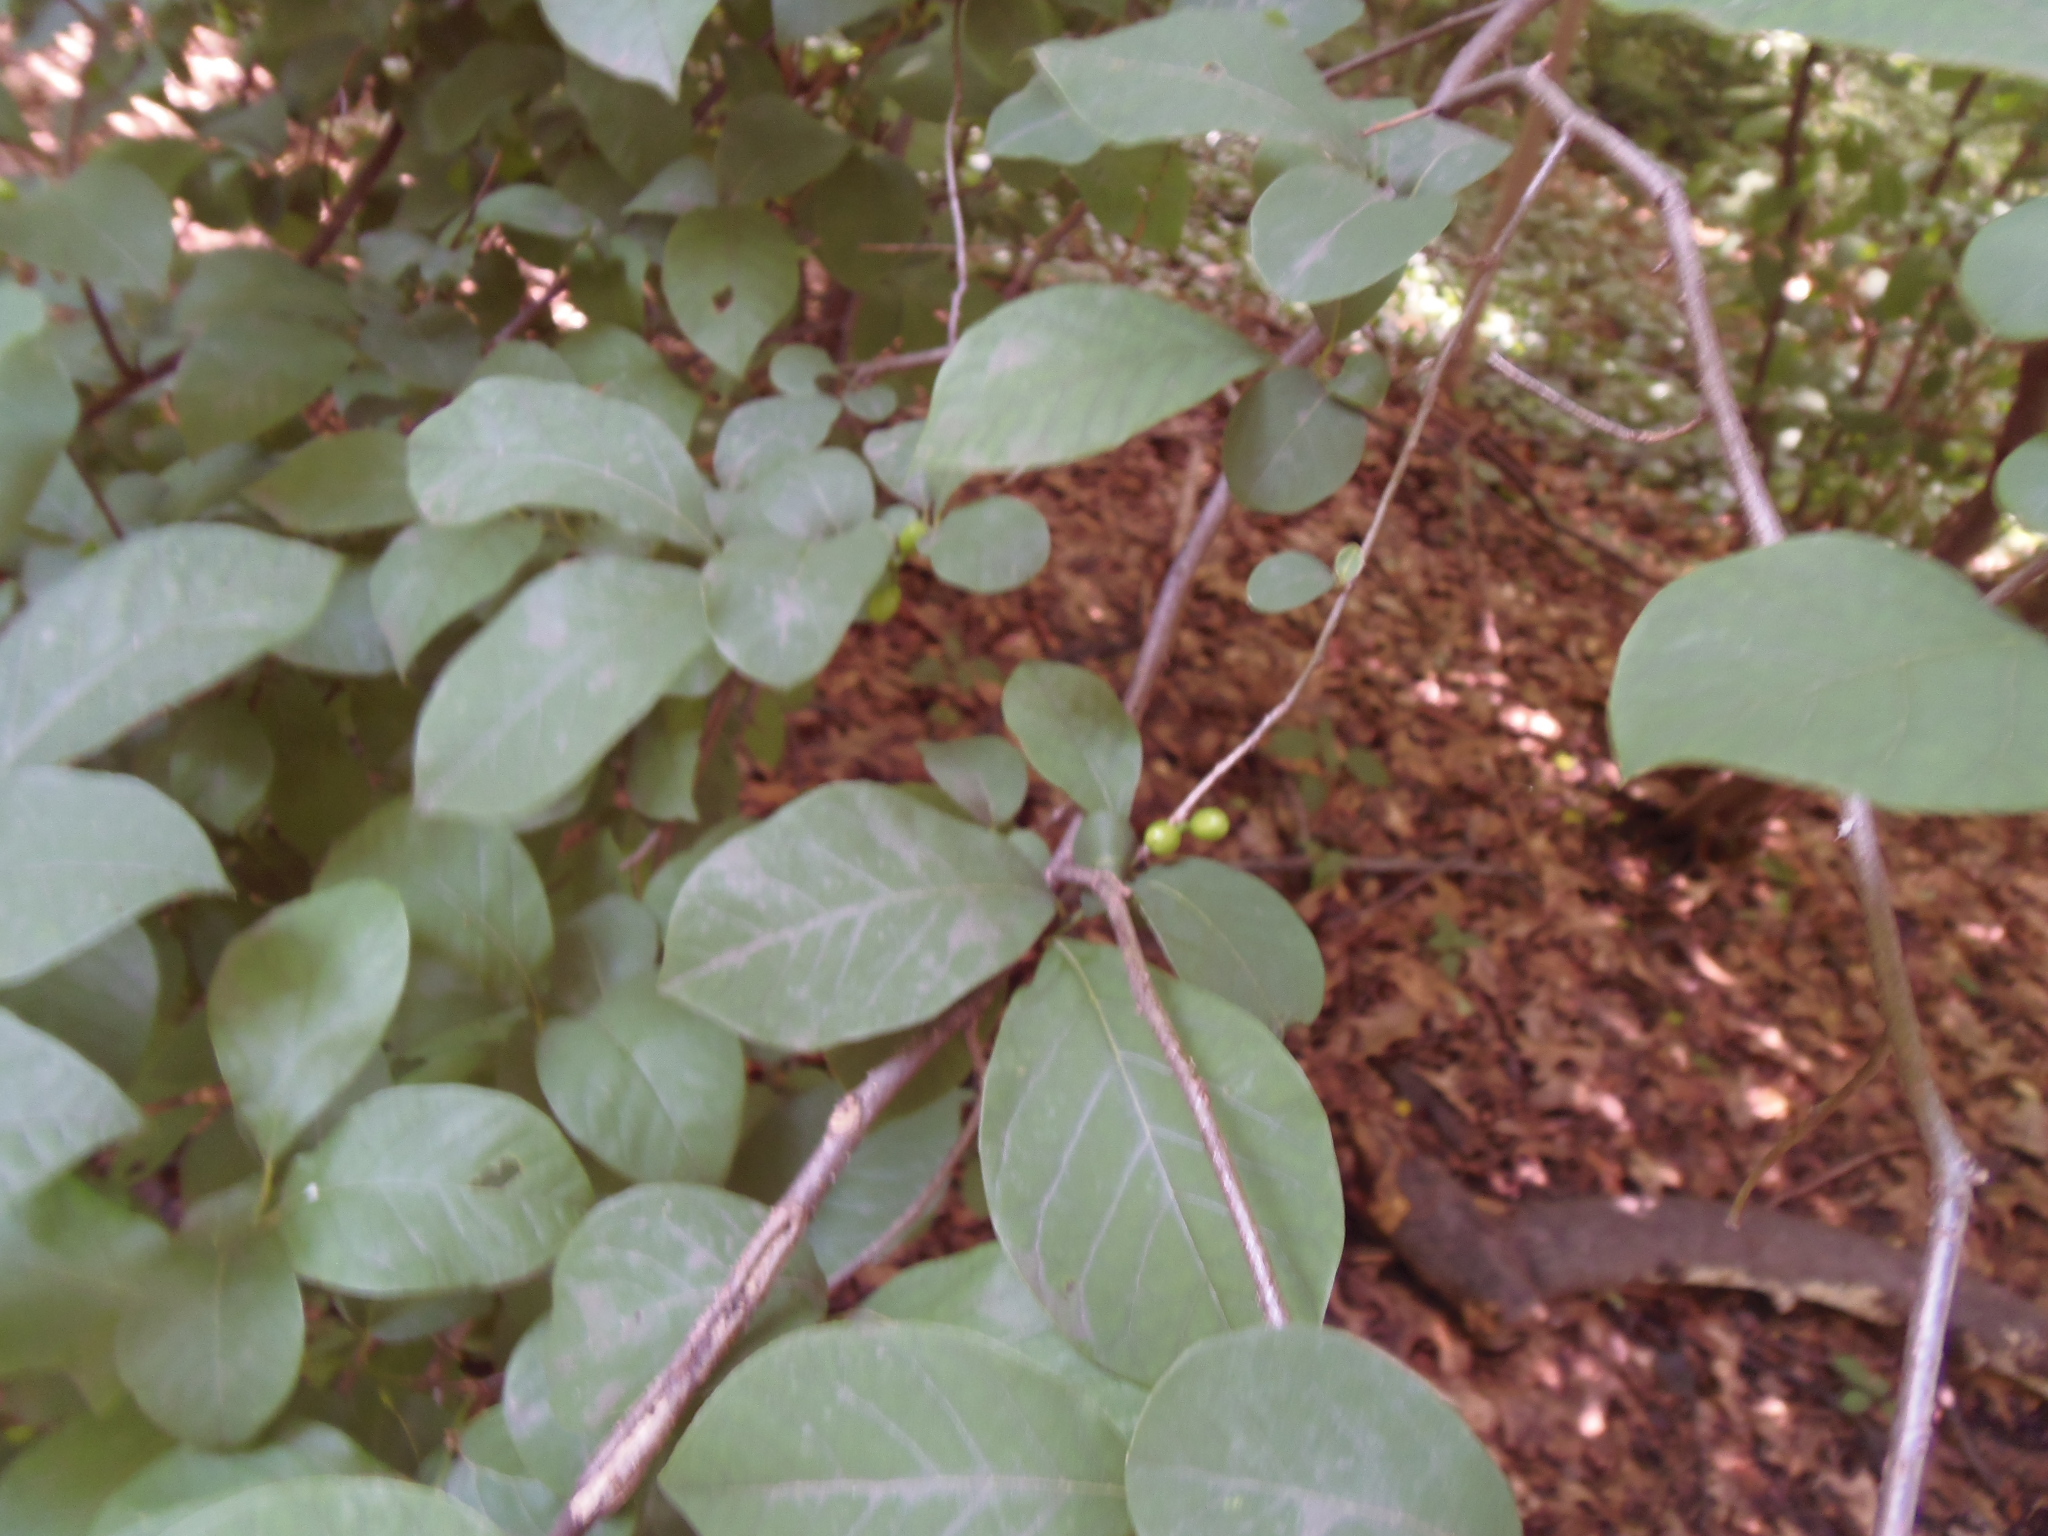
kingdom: Plantae
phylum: Tracheophyta
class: Magnoliopsida
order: Laurales
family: Lauraceae
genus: Lindera
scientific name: Lindera benzoin
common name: Spicebush
